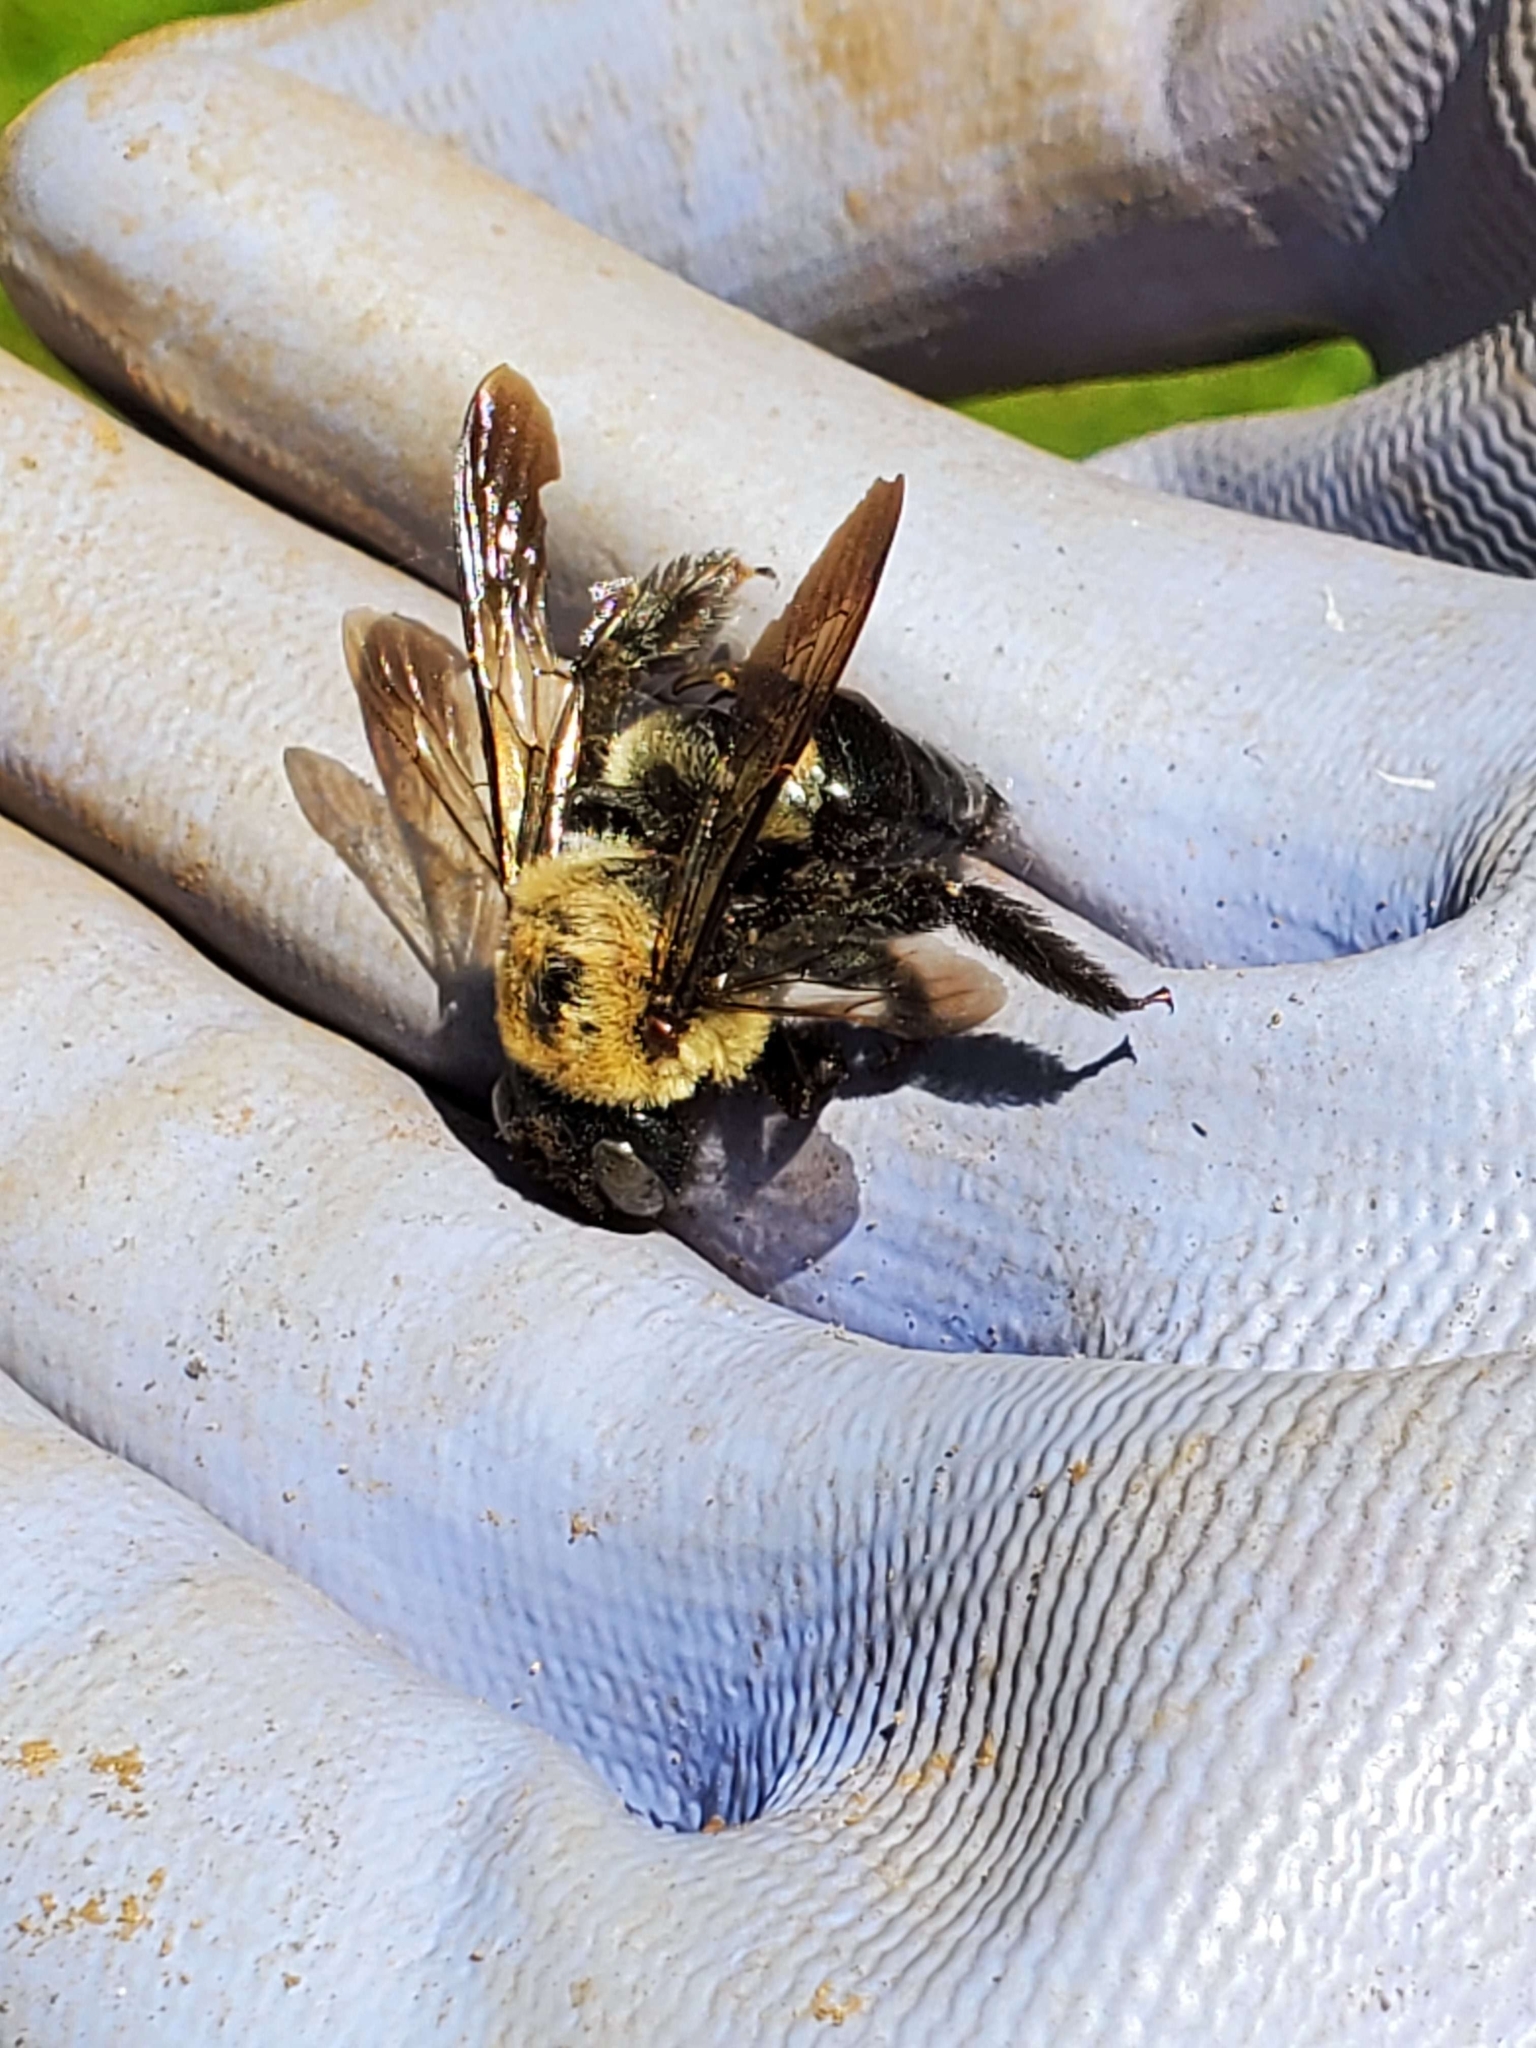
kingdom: Animalia
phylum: Arthropoda
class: Insecta
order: Hymenoptera
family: Apidae
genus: Xylocopa
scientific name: Xylocopa virginica
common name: Carpenter bee
